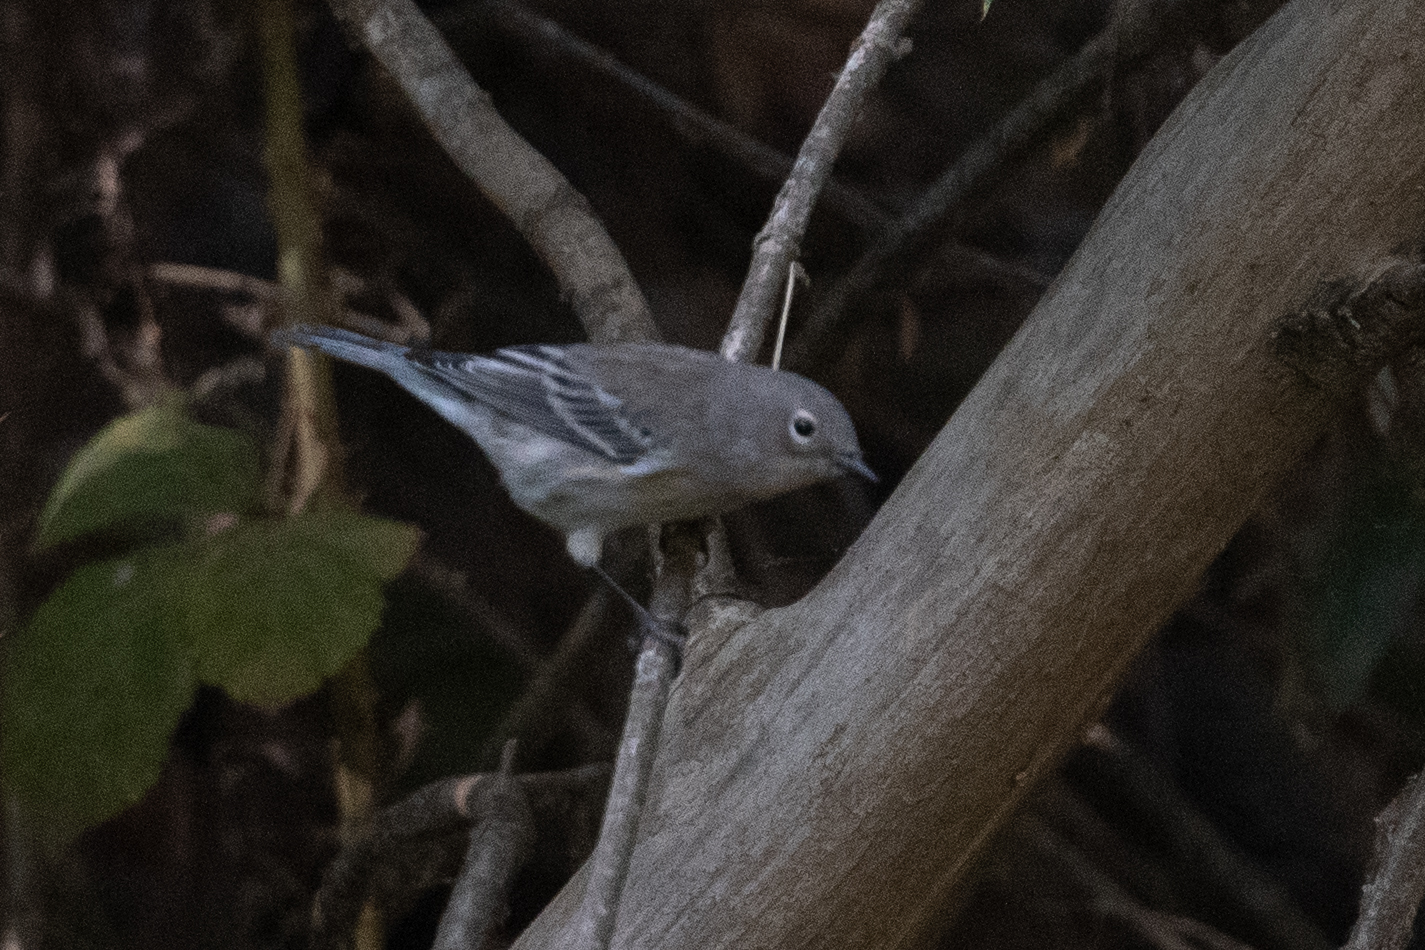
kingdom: Animalia
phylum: Chordata
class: Aves
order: Passeriformes
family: Parulidae
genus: Setophaga
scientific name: Setophaga coronata
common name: Myrtle warbler
